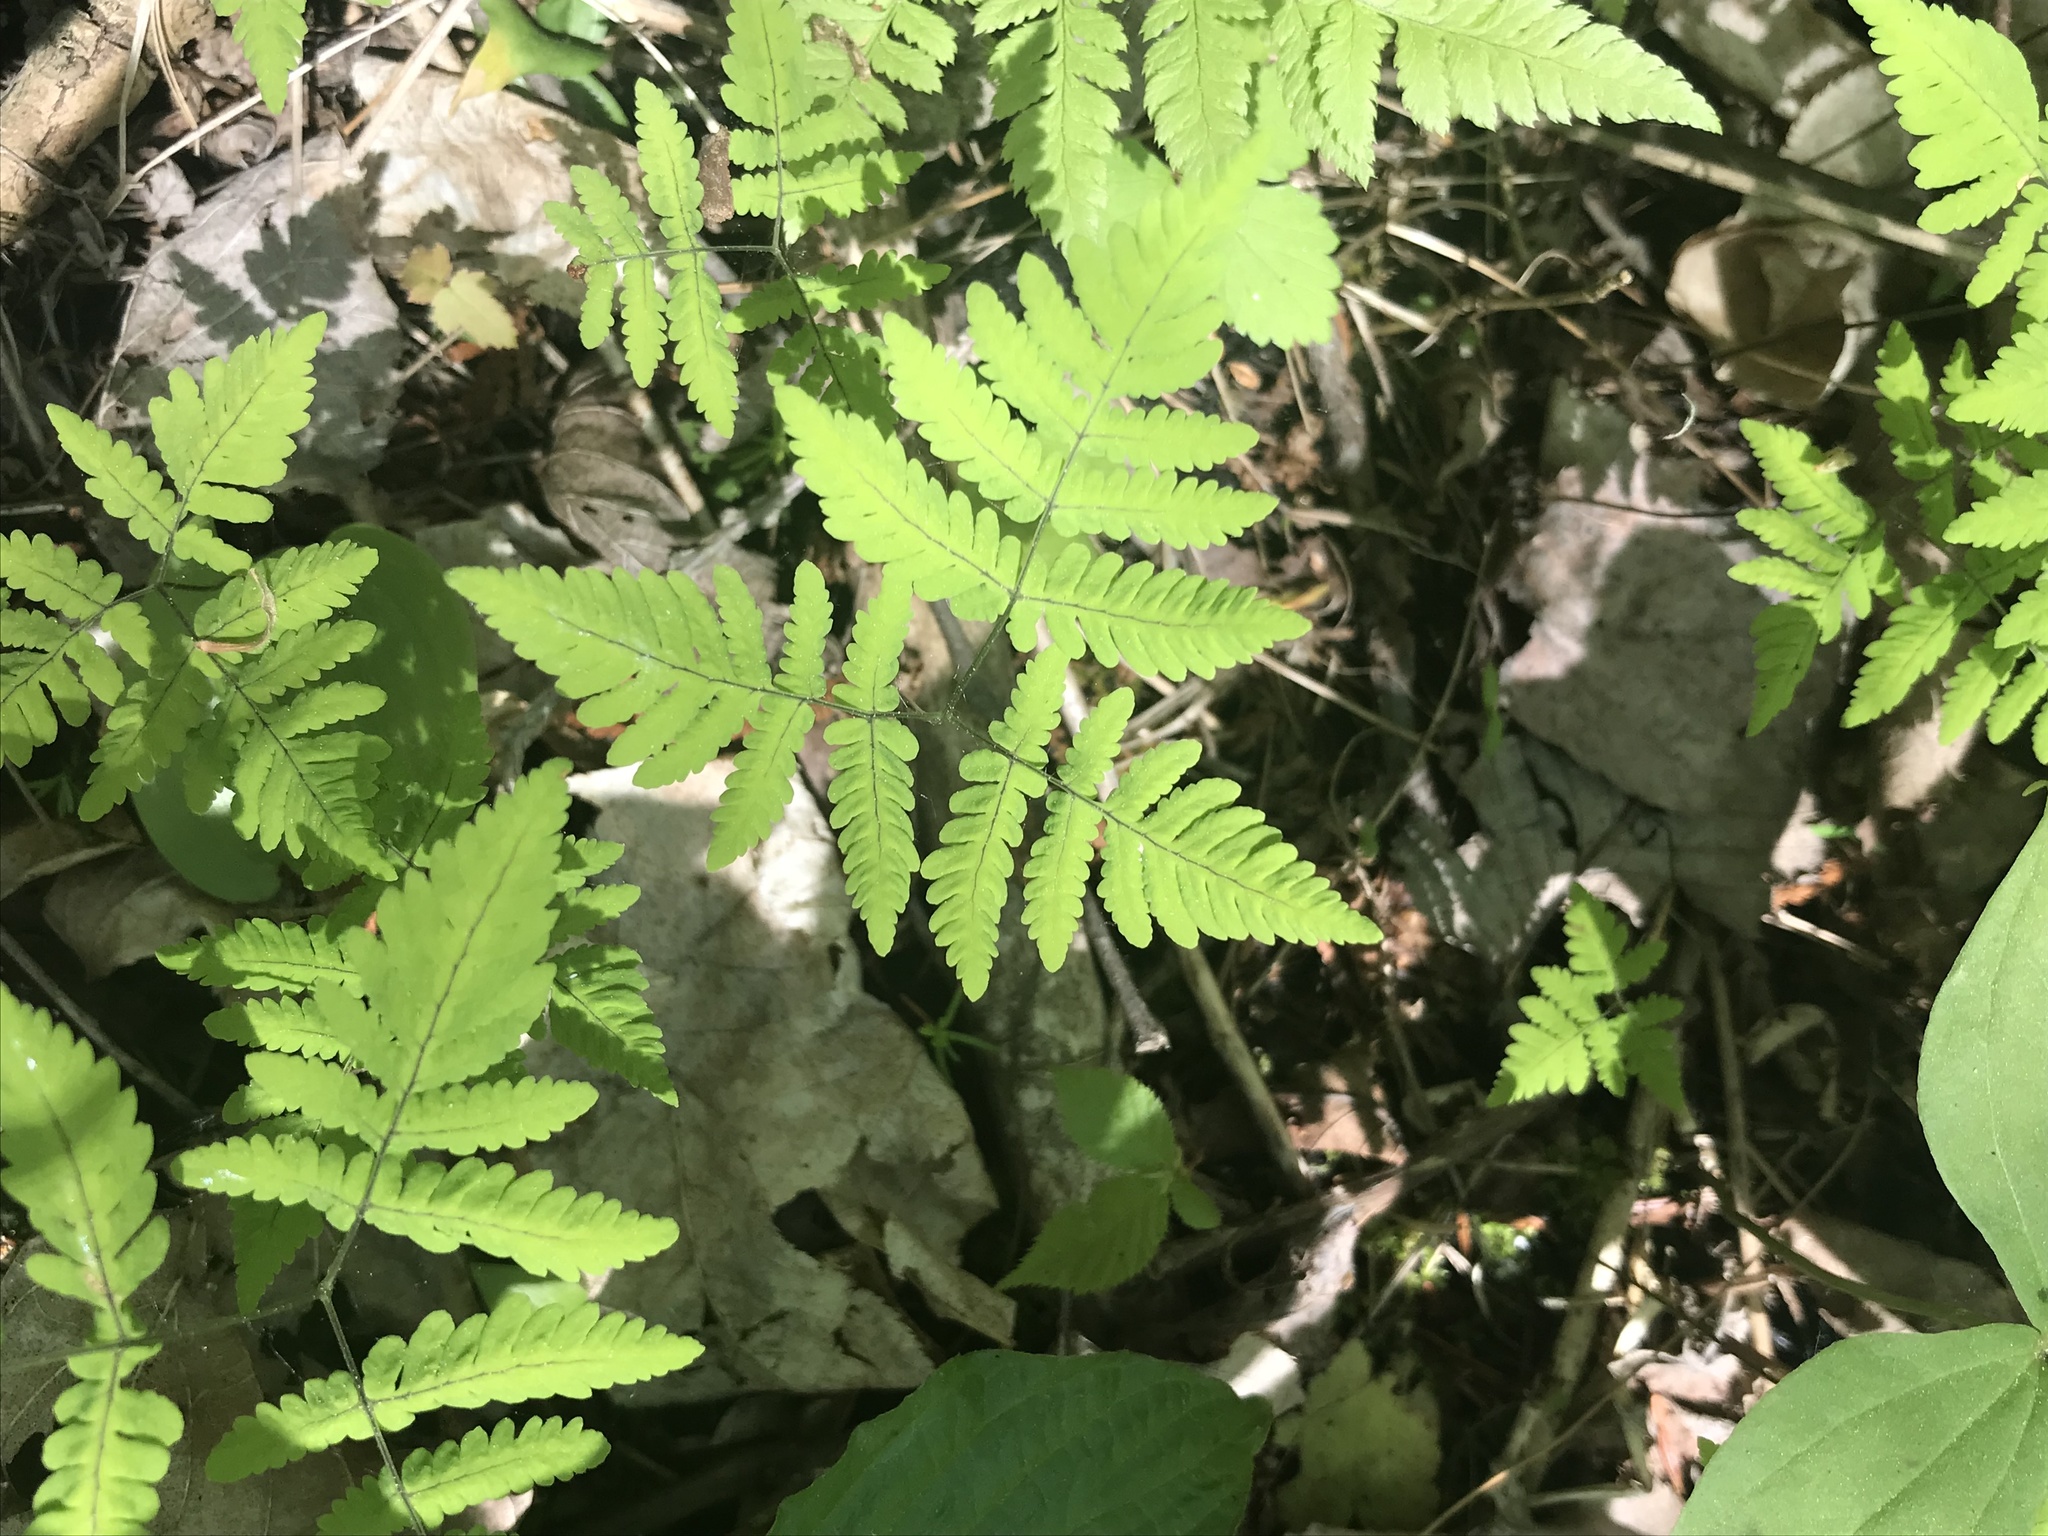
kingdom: Plantae
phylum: Tracheophyta
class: Polypodiopsida
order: Polypodiales
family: Cystopteridaceae
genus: Gymnocarpium
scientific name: Gymnocarpium dryopteris
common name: Oak fern
